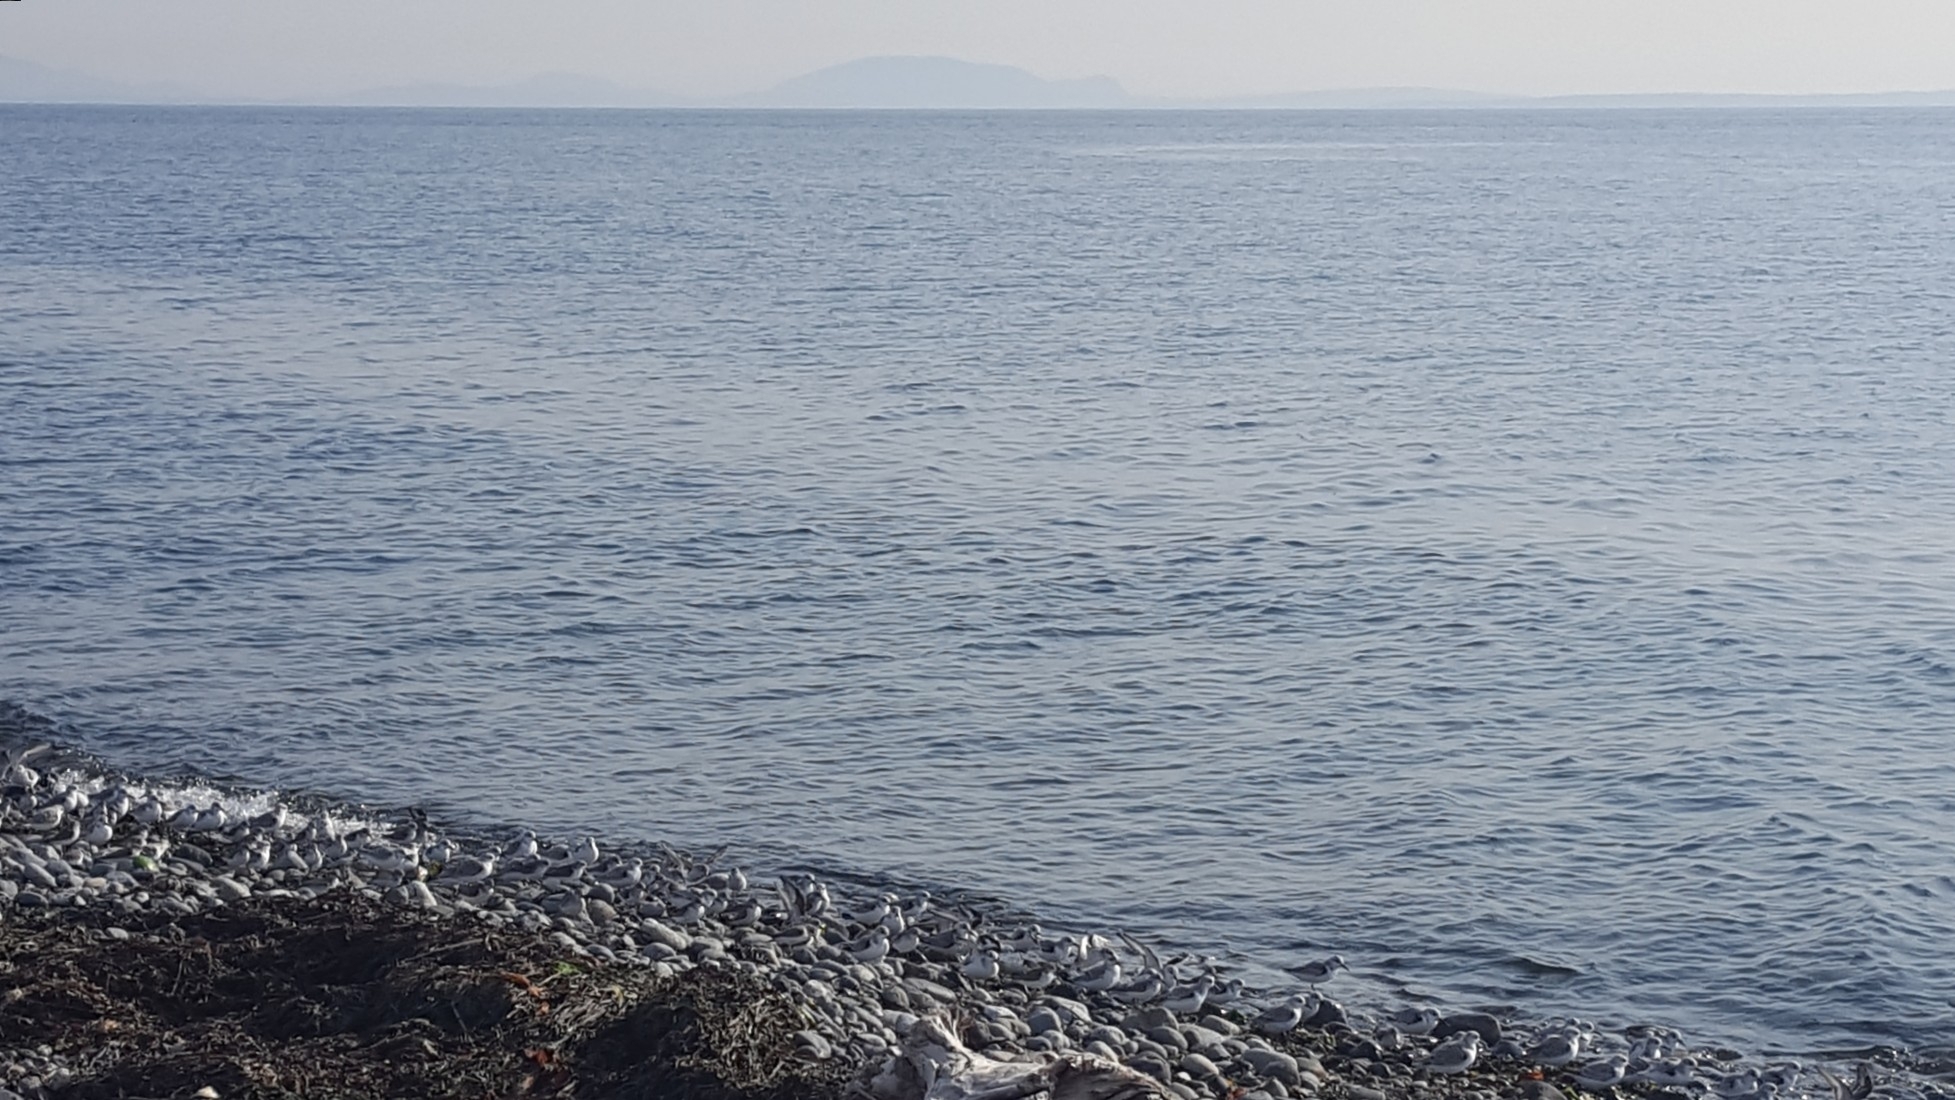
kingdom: Animalia
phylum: Chordata
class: Aves
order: Charadriiformes
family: Scolopacidae
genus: Calidris
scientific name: Calidris alba
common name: Sanderling
